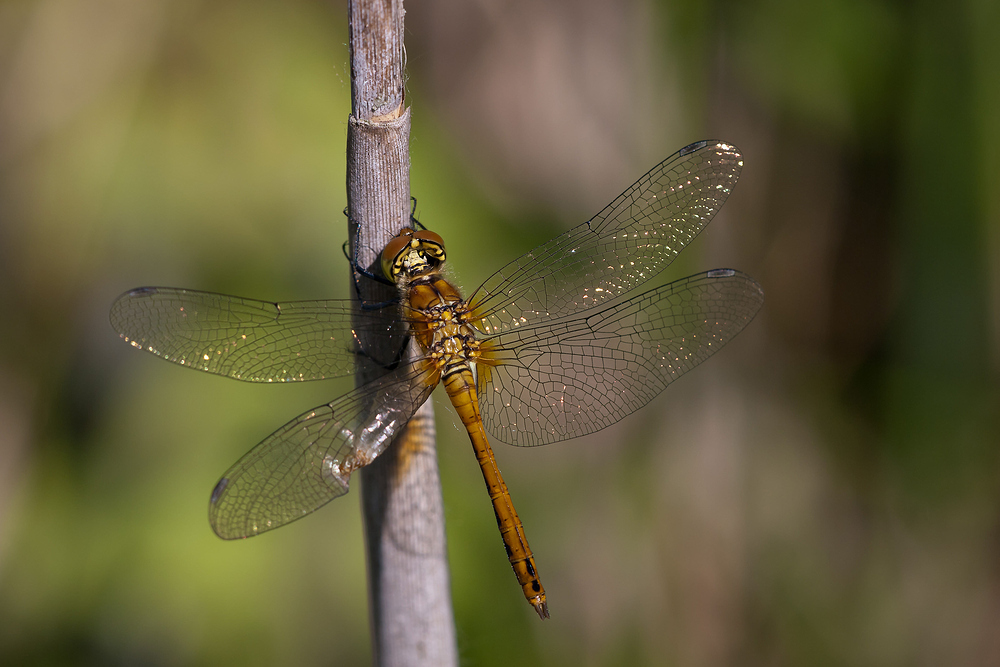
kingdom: Animalia
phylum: Arthropoda
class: Insecta
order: Odonata
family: Libellulidae
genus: Sympetrum
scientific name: Sympetrum sanguineum
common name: Ruddy darter
